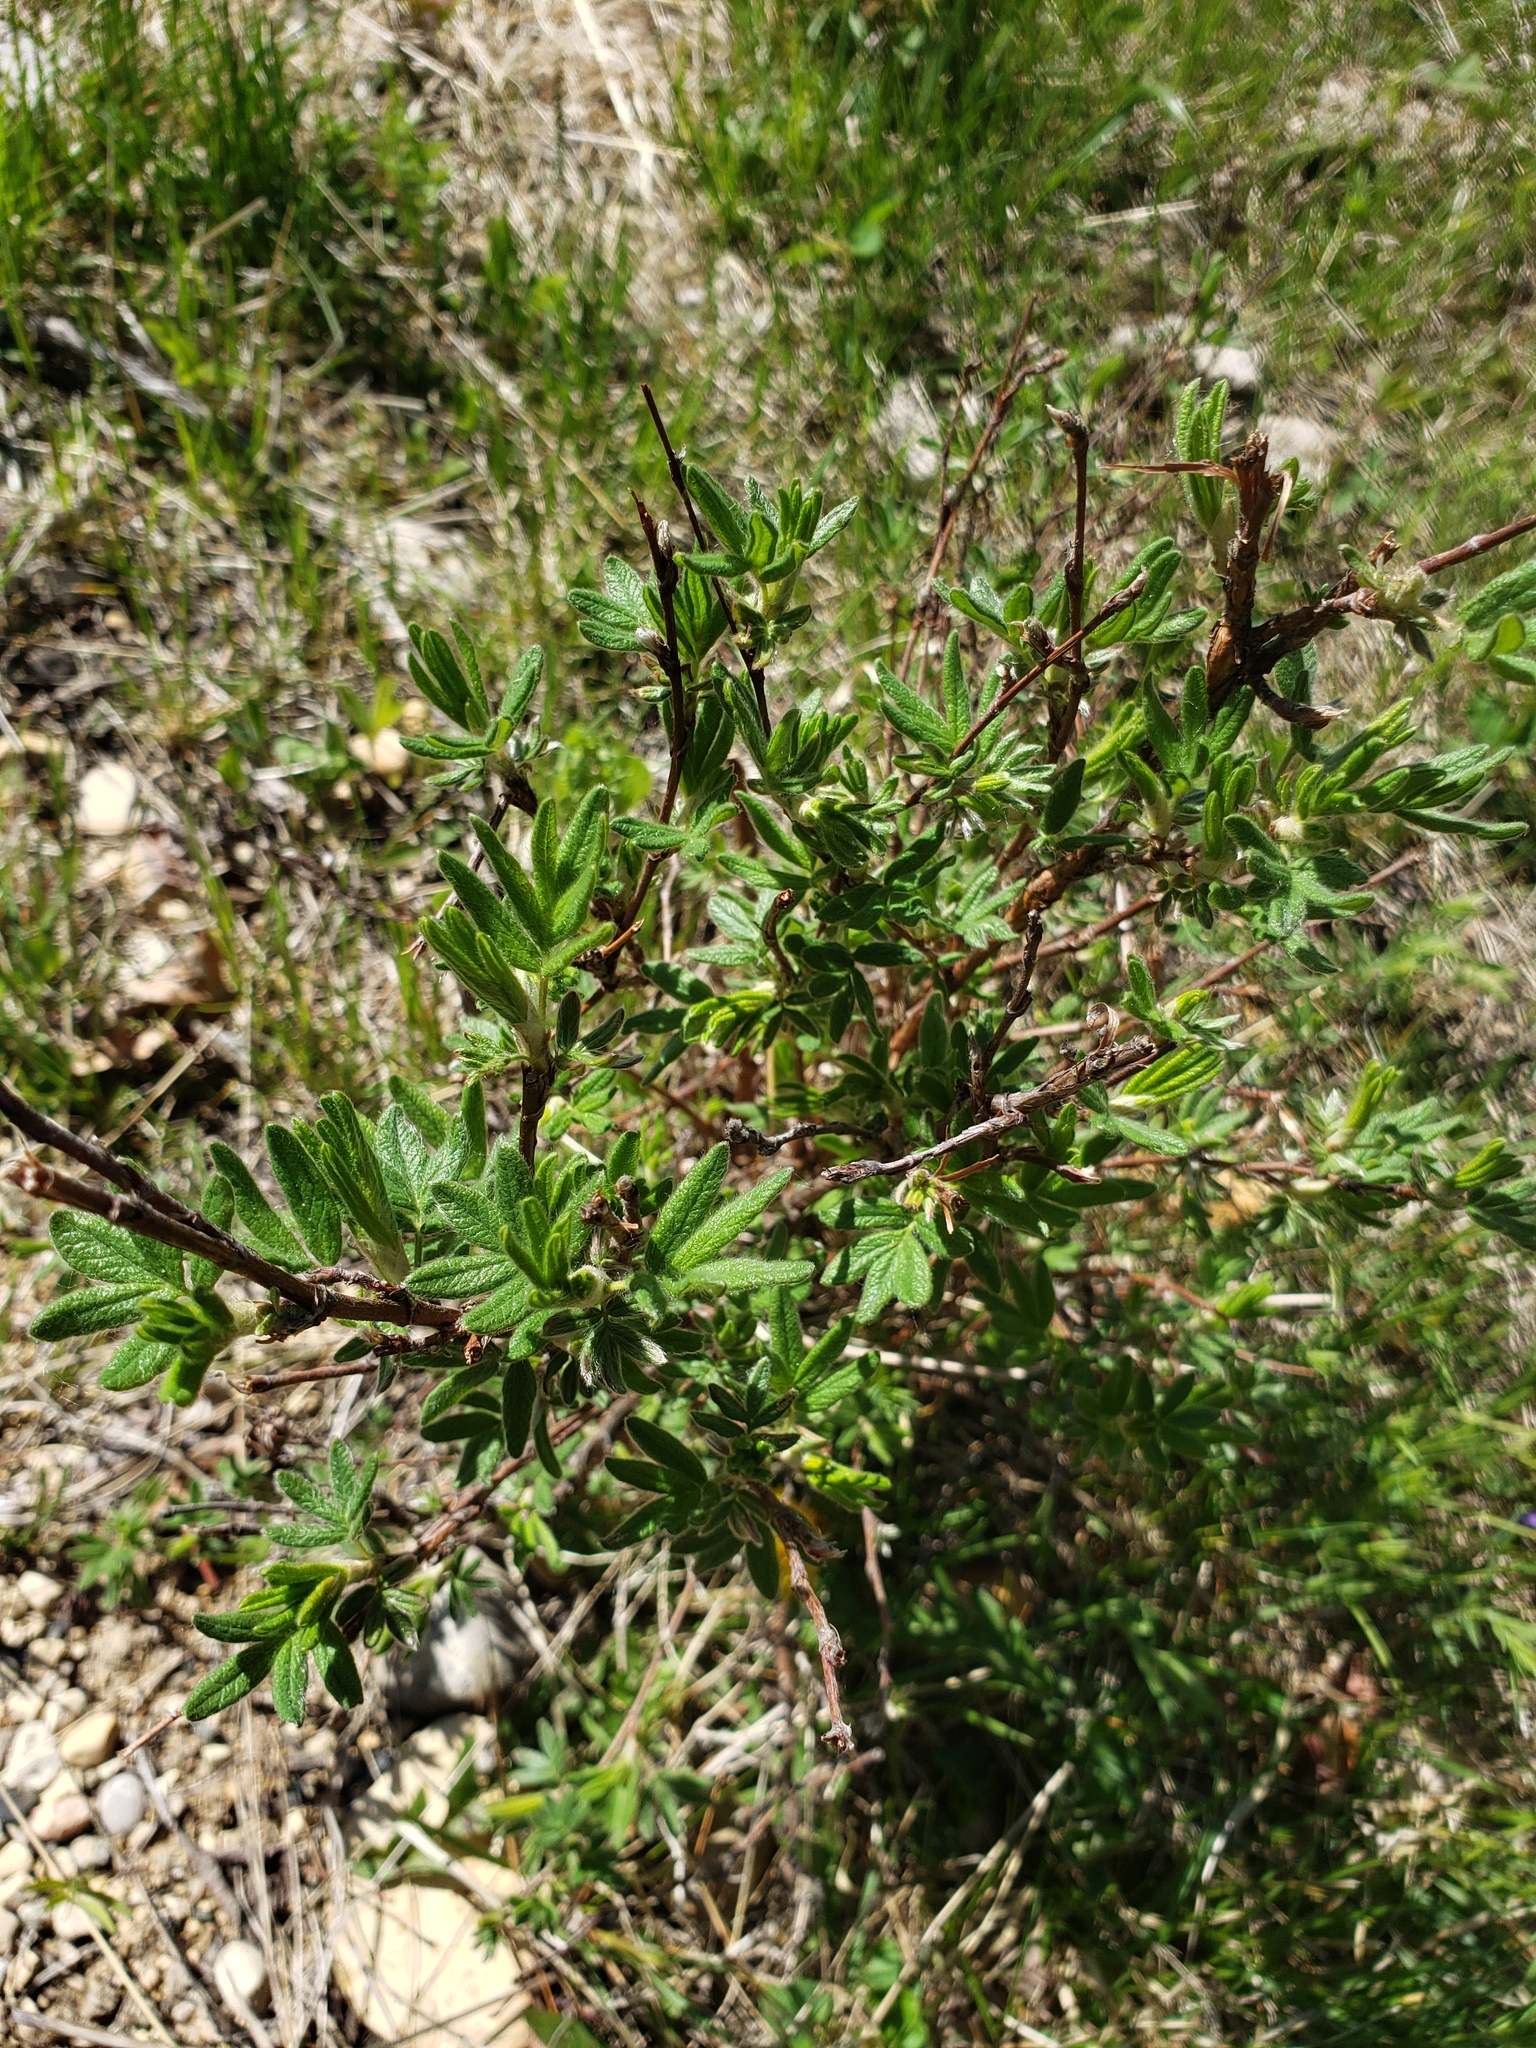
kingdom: Plantae
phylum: Tracheophyta
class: Magnoliopsida
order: Rosales
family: Rosaceae
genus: Dasiphora
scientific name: Dasiphora fruticosa
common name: Shrubby cinquefoil
